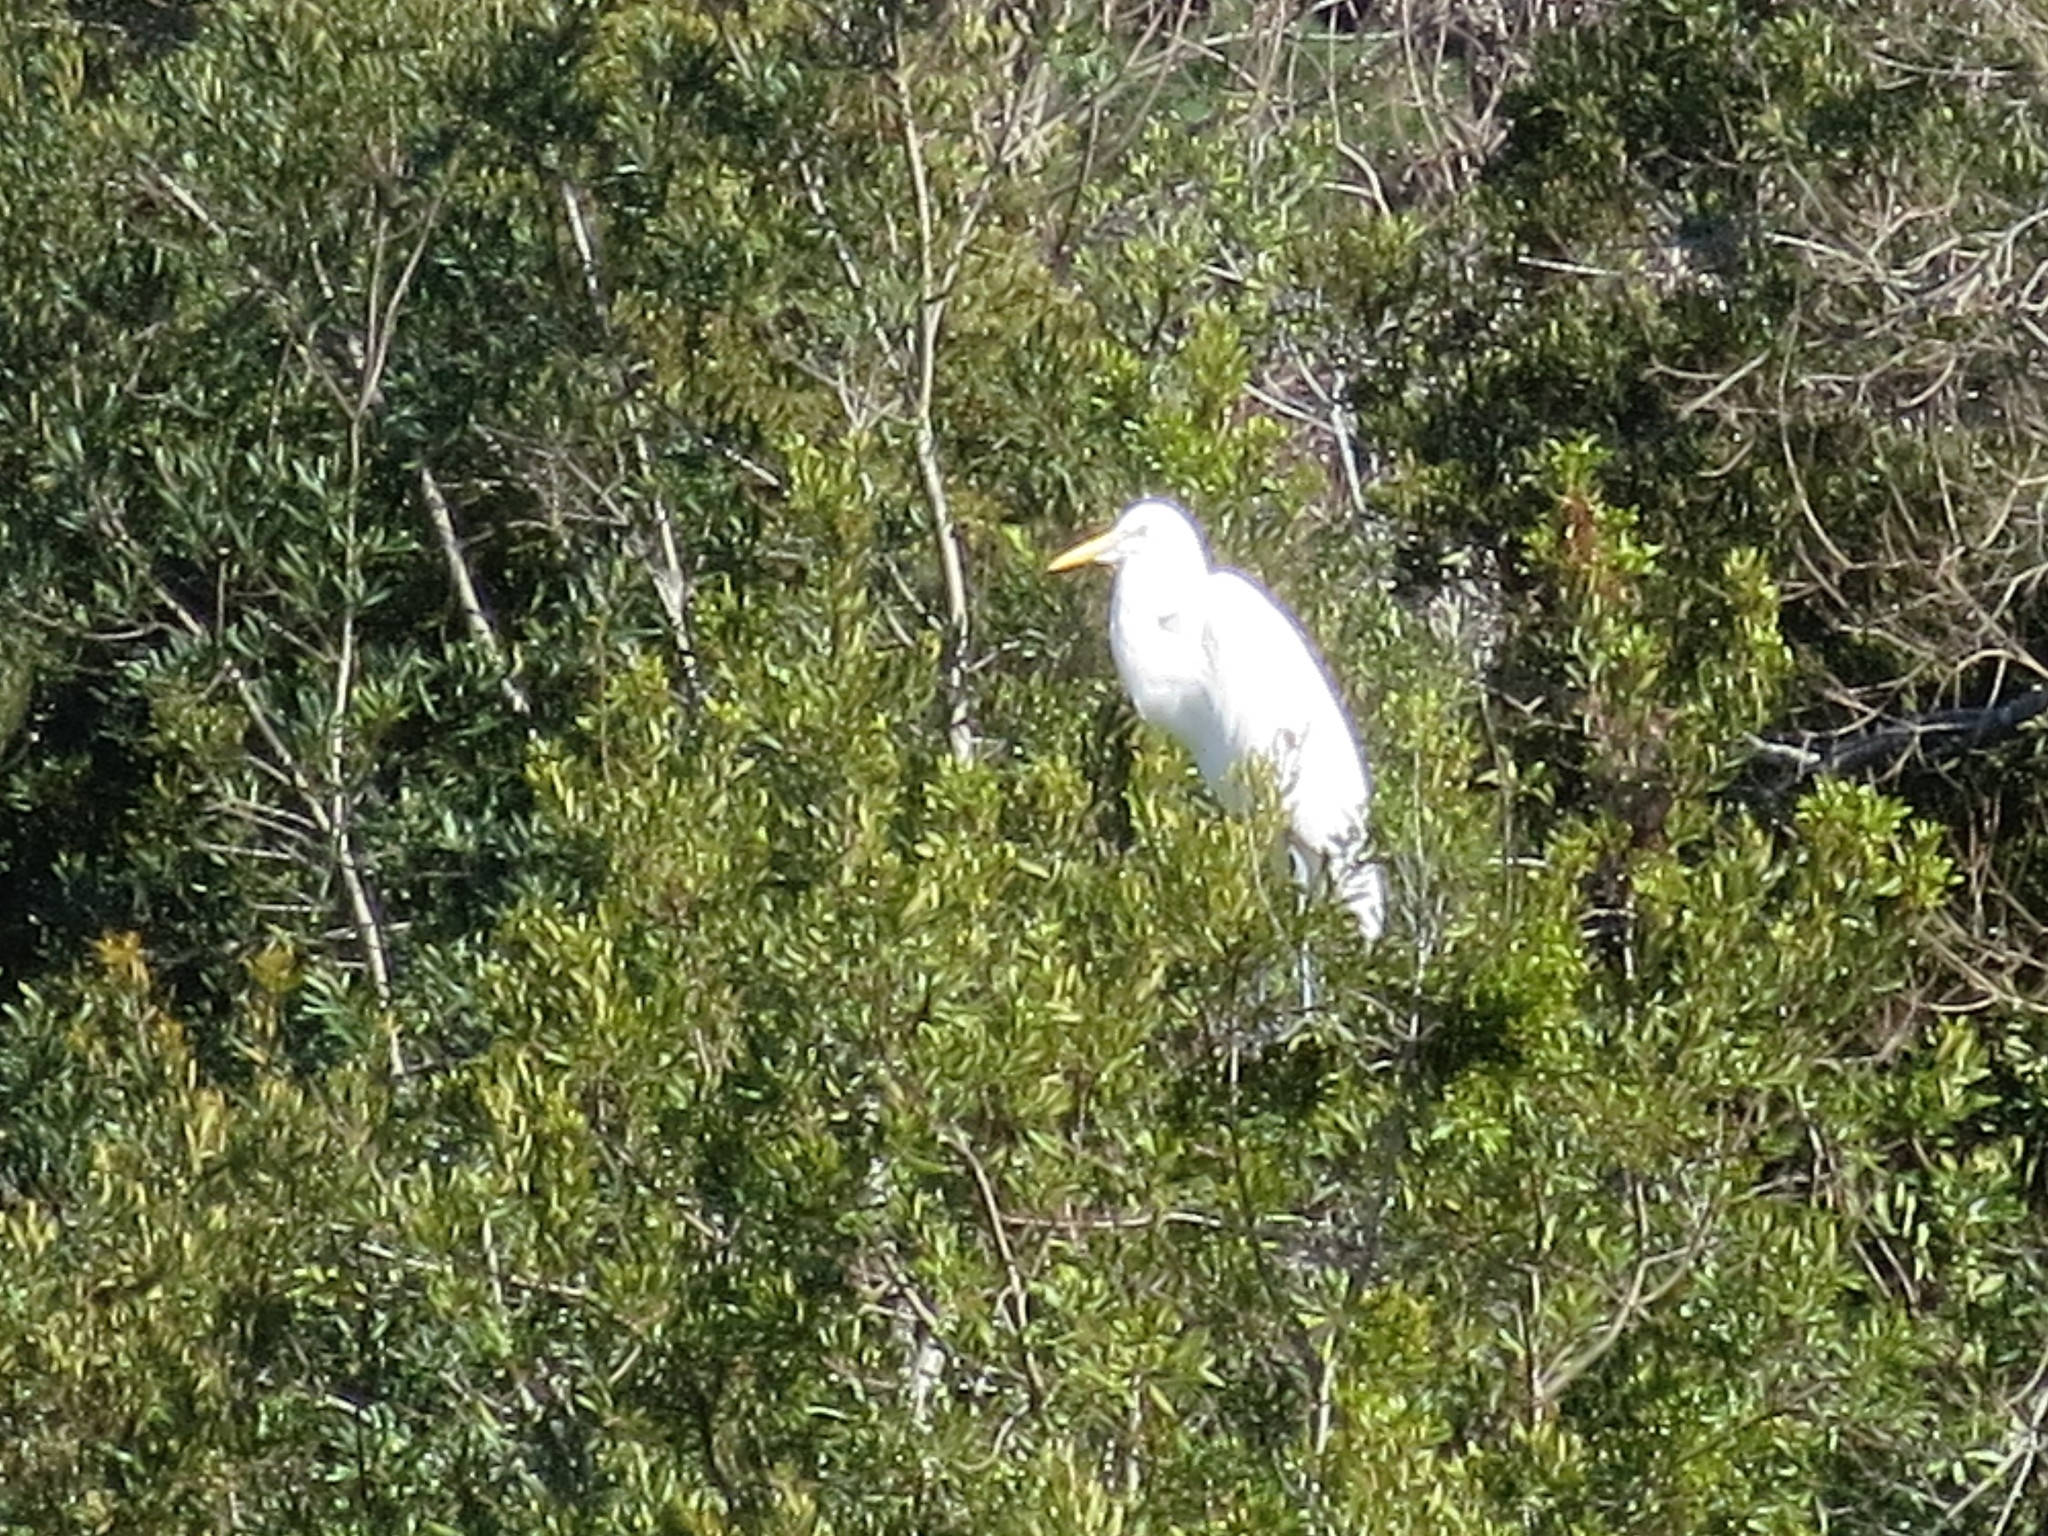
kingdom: Animalia
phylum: Chordata
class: Aves
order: Pelecaniformes
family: Ardeidae
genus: Ardea
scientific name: Ardea alba
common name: Great egret
